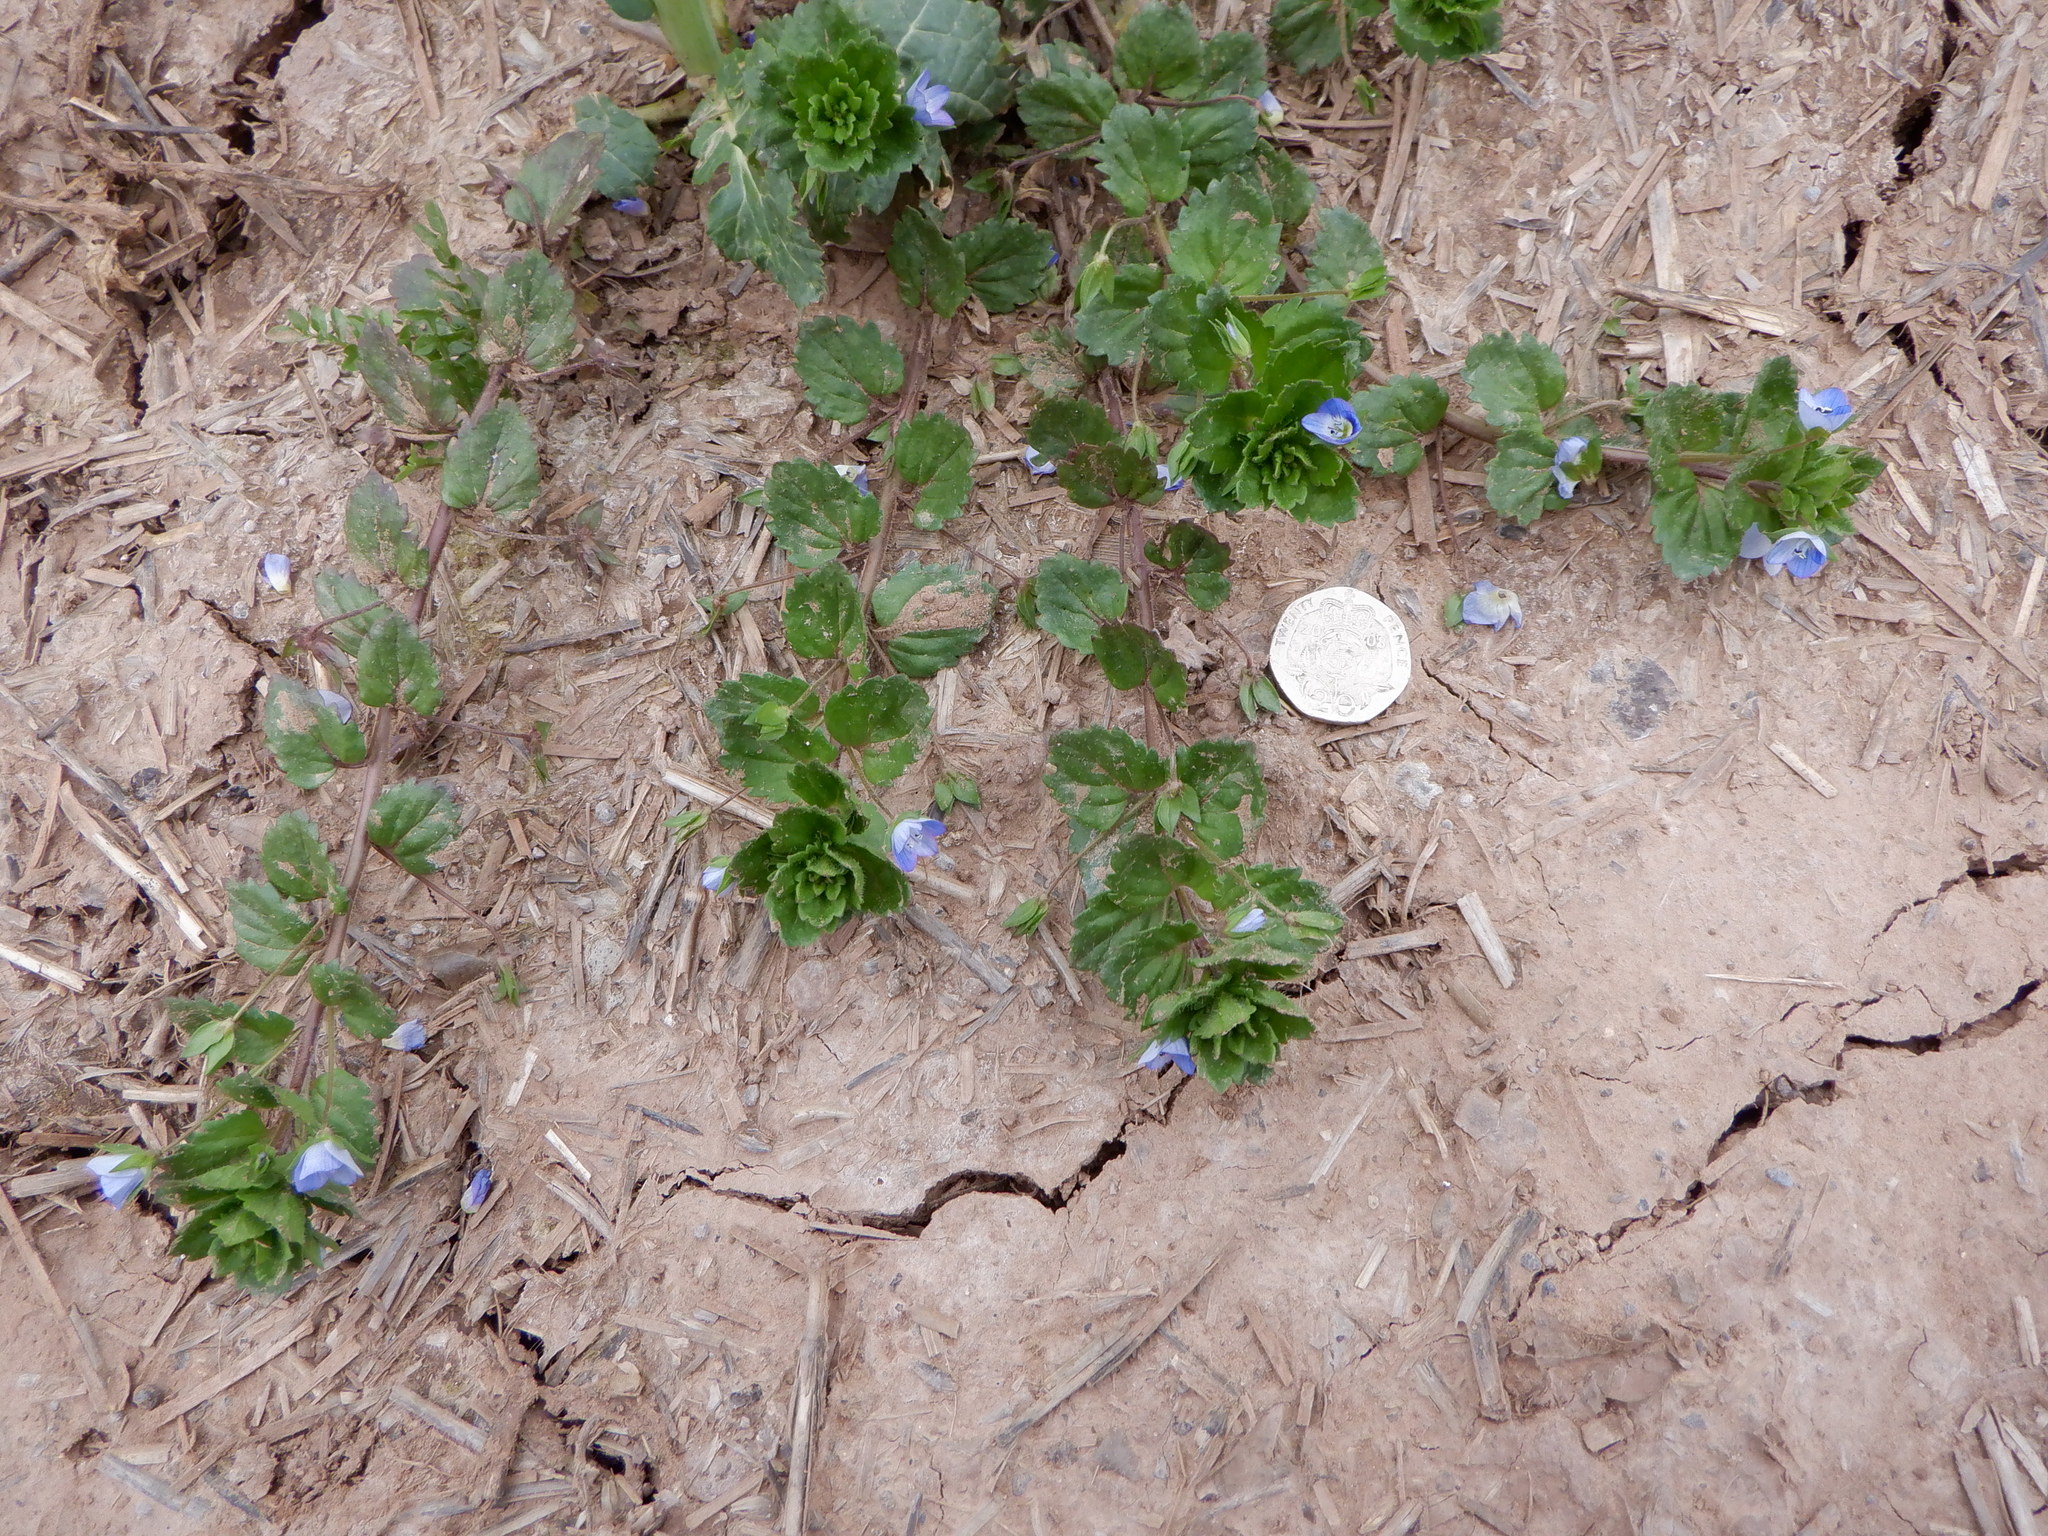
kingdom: Plantae
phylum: Tracheophyta
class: Magnoliopsida
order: Lamiales
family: Plantaginaceae
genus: Veronica
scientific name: Veronica persica
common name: Common field-speedwell
